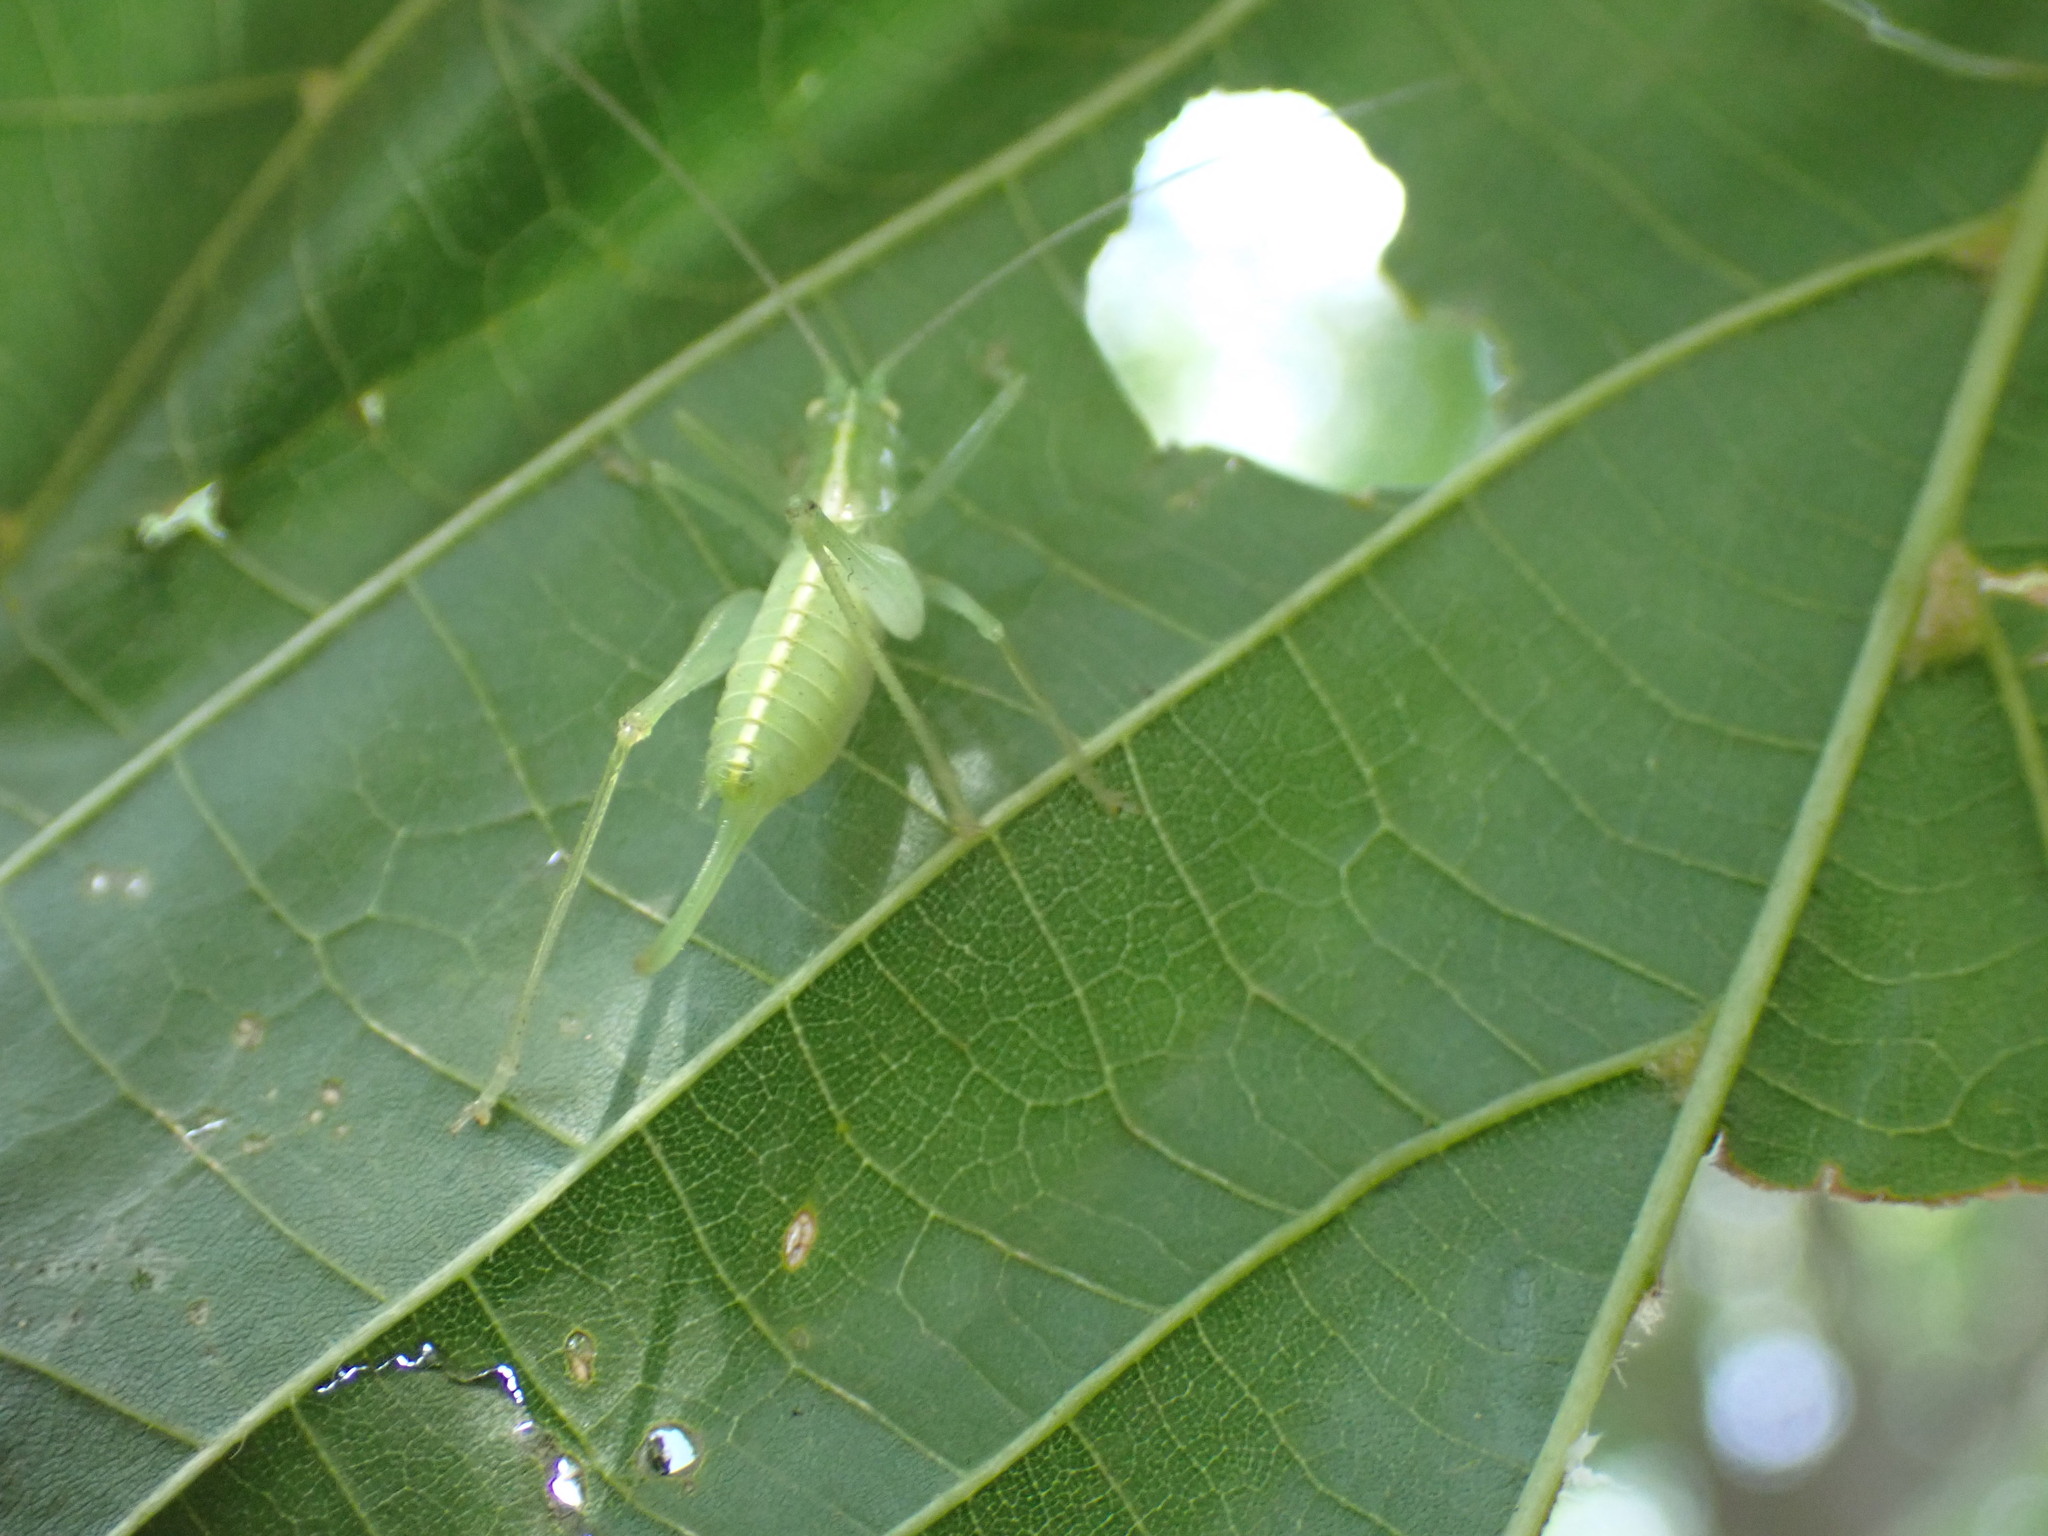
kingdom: Animalia
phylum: Arthropoda
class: Insecta
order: Orthoptera
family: Tettigoniidae
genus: Meconema
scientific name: Meconema meridionale
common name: Southern oak bush-cricket
